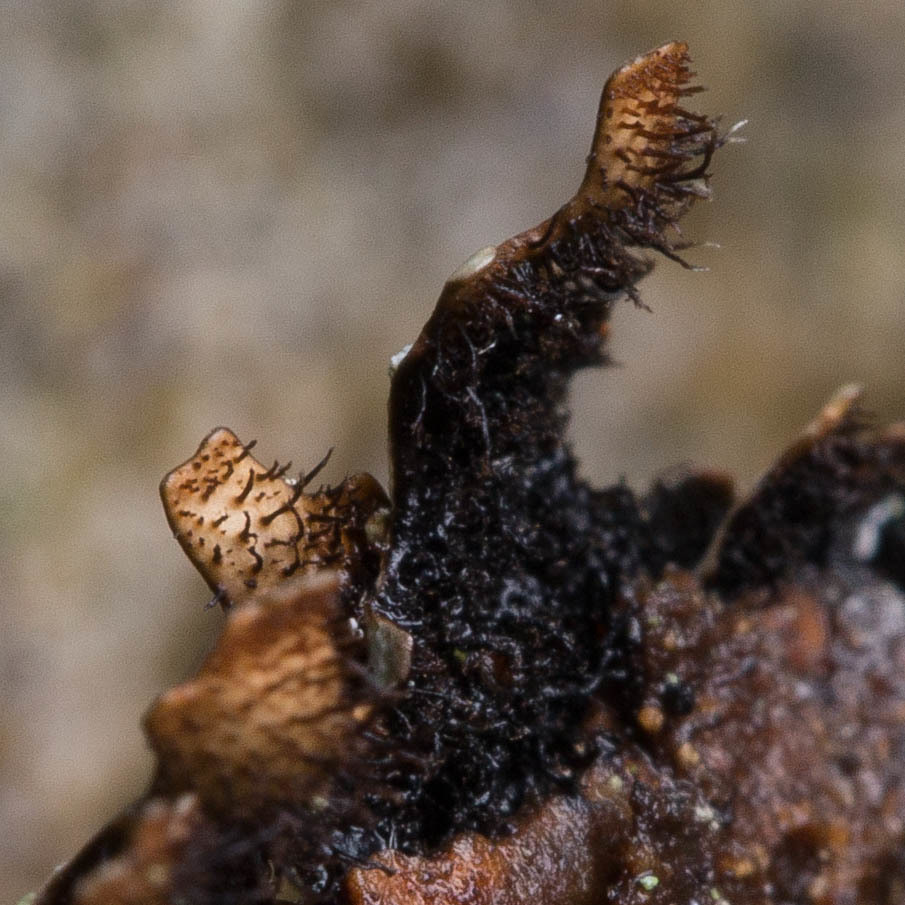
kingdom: Fungi
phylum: Ascomycota
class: Lecanoromycetes
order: Lecanorales
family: Parmeliaceae
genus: Parmelia
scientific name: Parmelia sulcata
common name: Netted shield lichen
